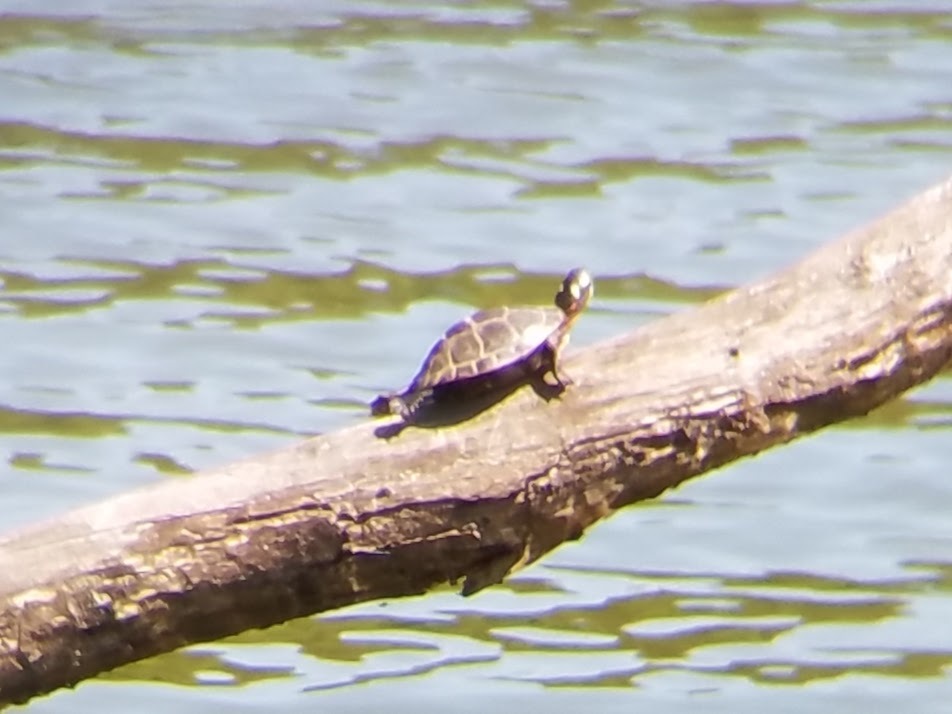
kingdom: Animalia
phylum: Chordata
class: Testudines
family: Emydidae
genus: Chrysemys
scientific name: Chrysemys picta
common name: Painted turtle
